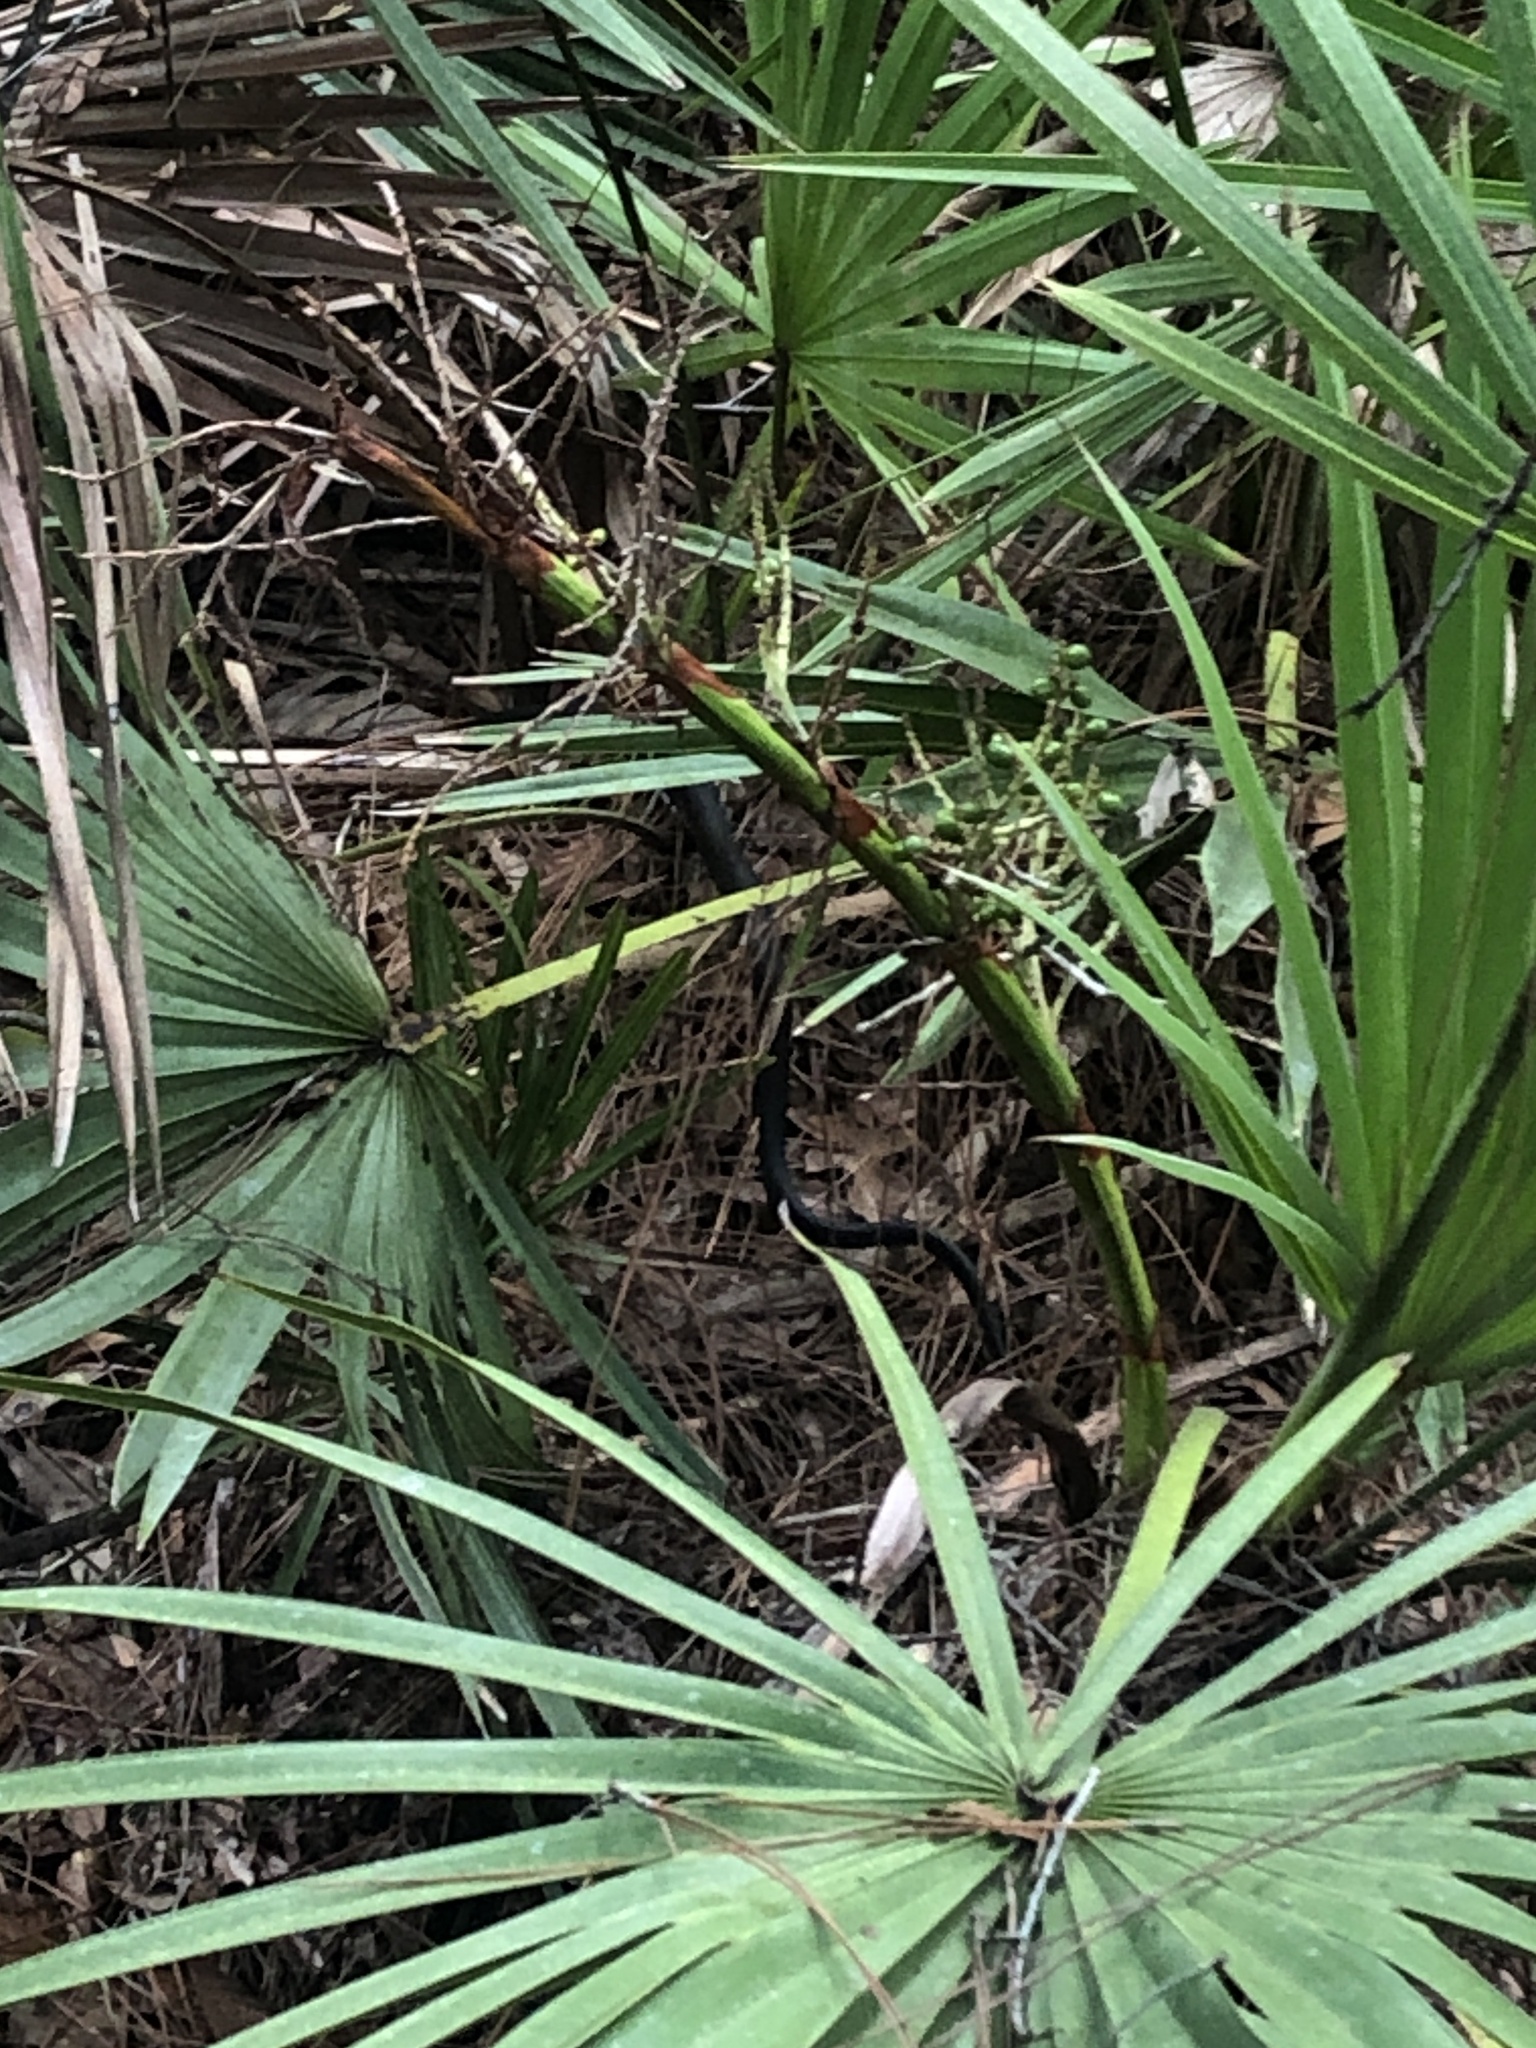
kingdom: Animalia
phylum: Chordata
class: Squamata
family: Colubridae
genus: Coluber
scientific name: Coluber constrictor
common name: Eastern racer
